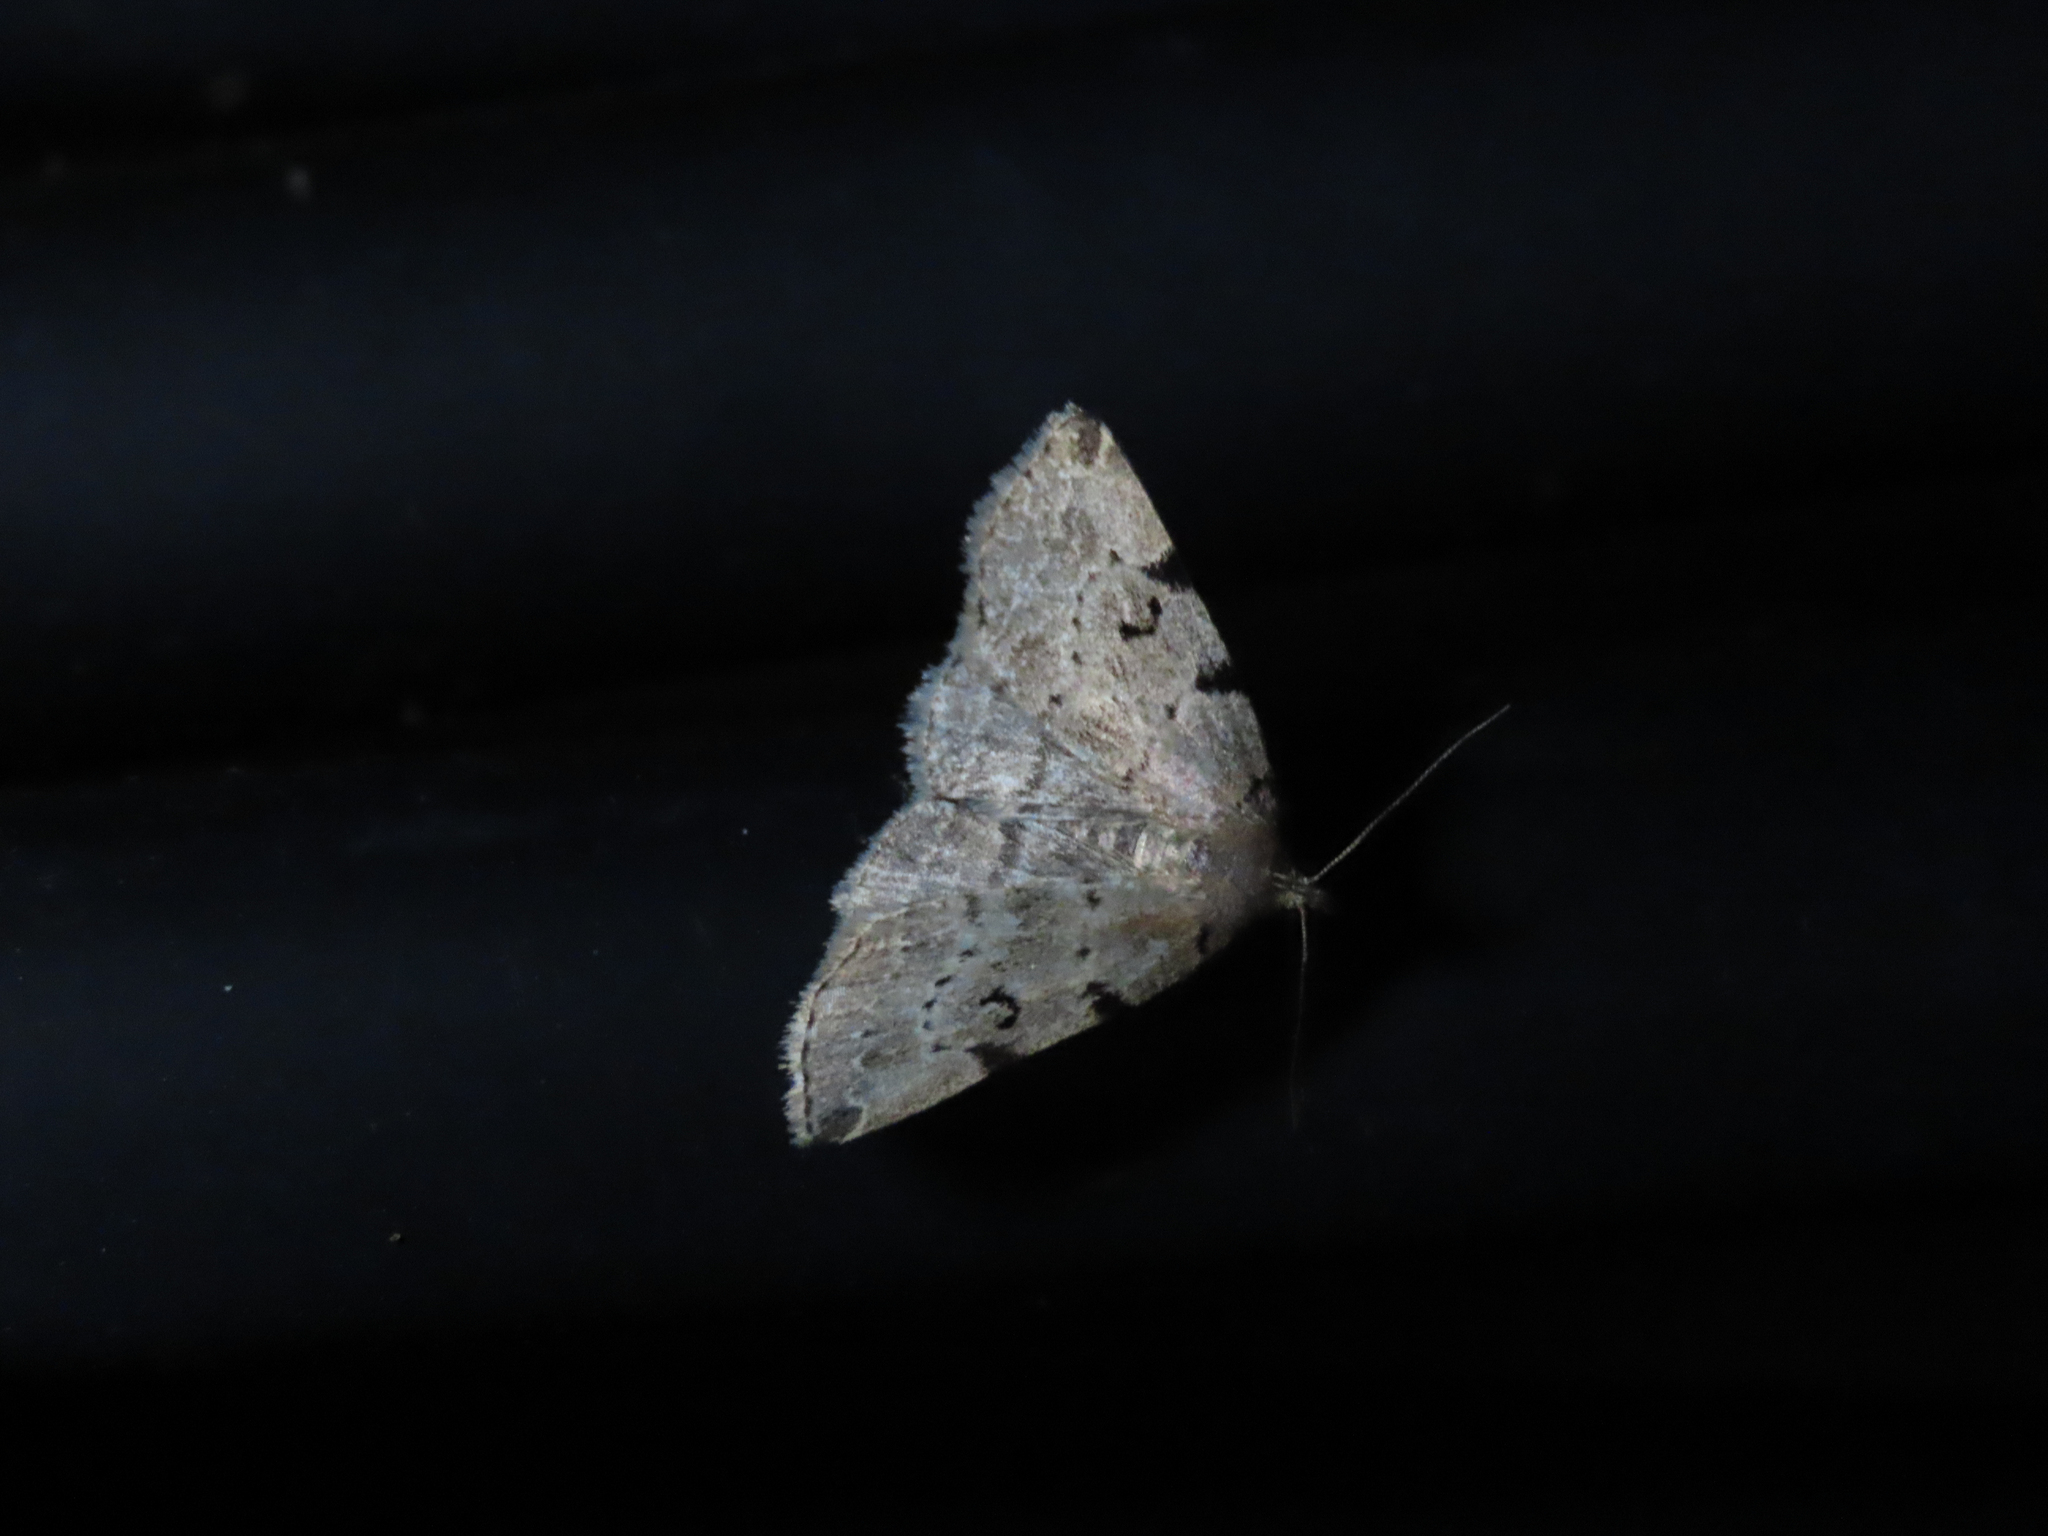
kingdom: Animalia
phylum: Arthropoda
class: Insecta
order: Lepidoptera
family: Erebidae
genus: Zanclognatha
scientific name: Zanclognatha lituralis
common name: Lettered fan-foot
